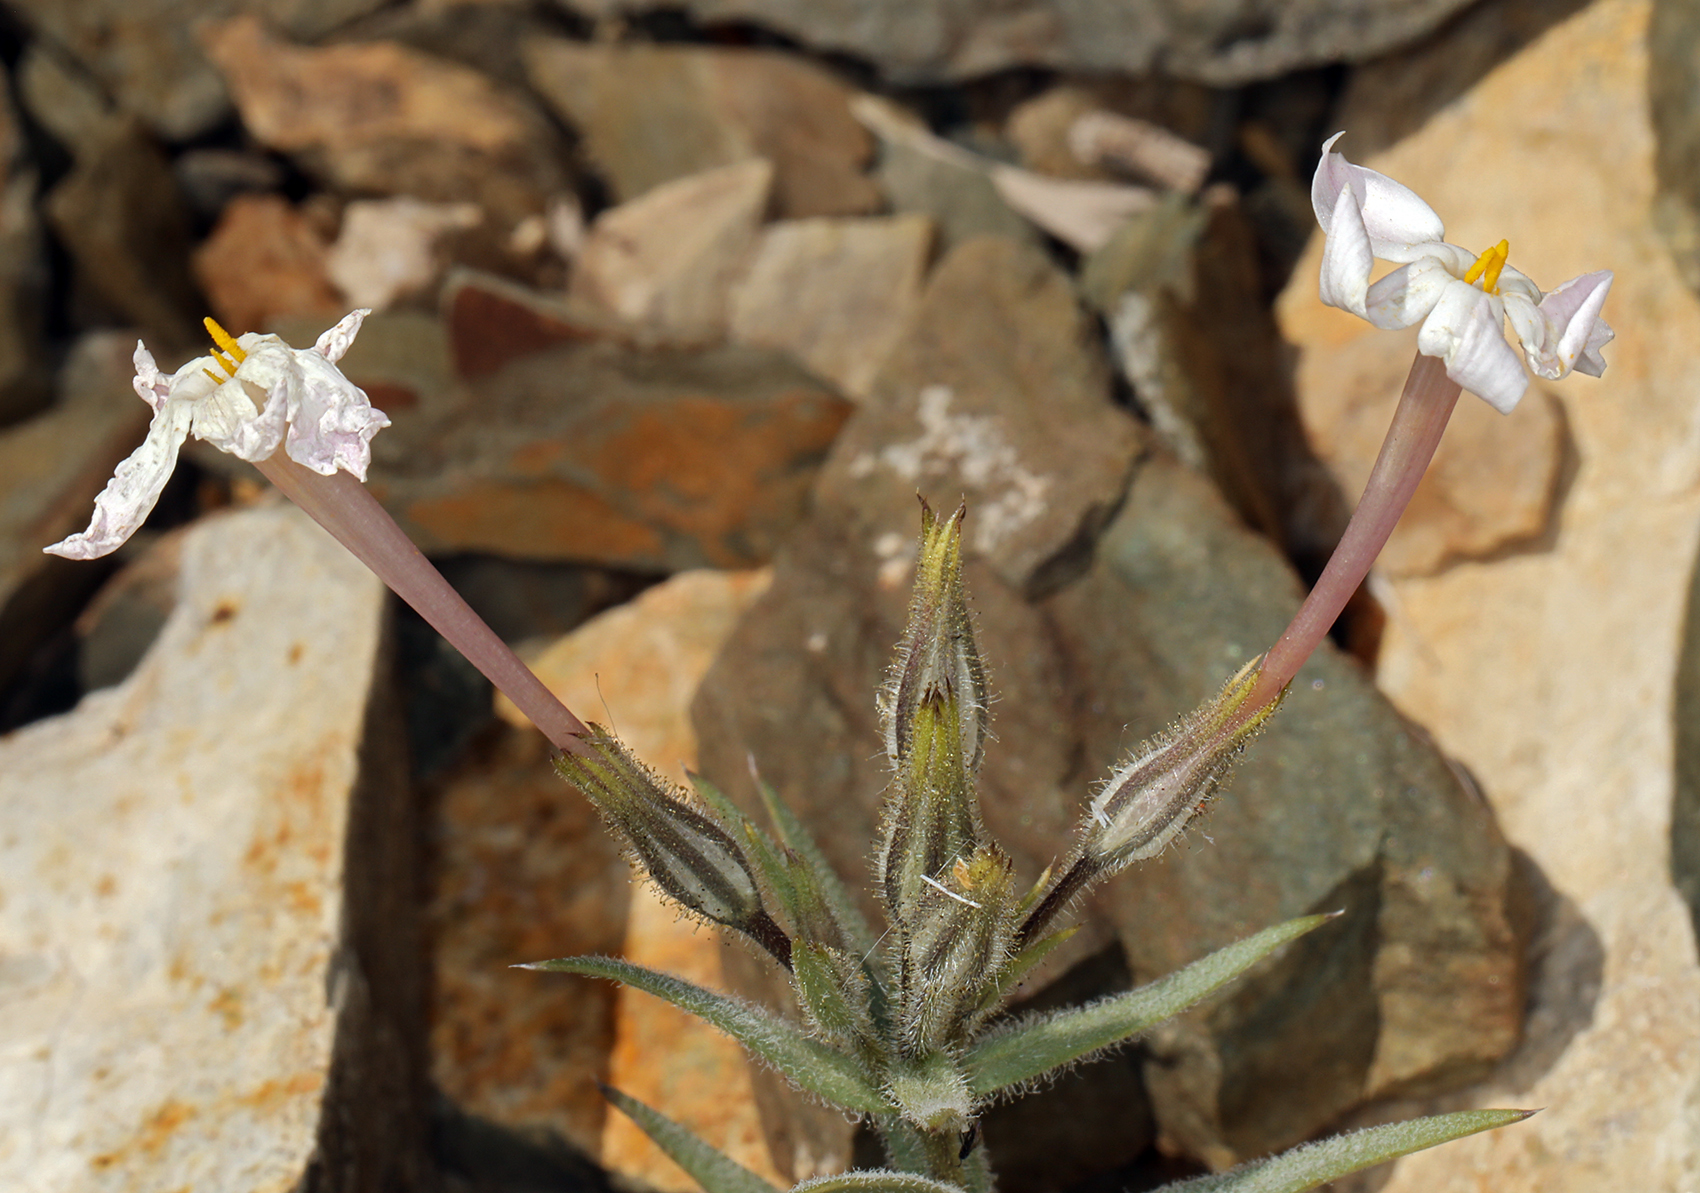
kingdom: Plantae
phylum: Tracheophyta
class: Magnoliopsida
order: Ericales
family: Polemoniaceae
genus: Phlox
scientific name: Phlox longifolia
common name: Longleaf phlox
